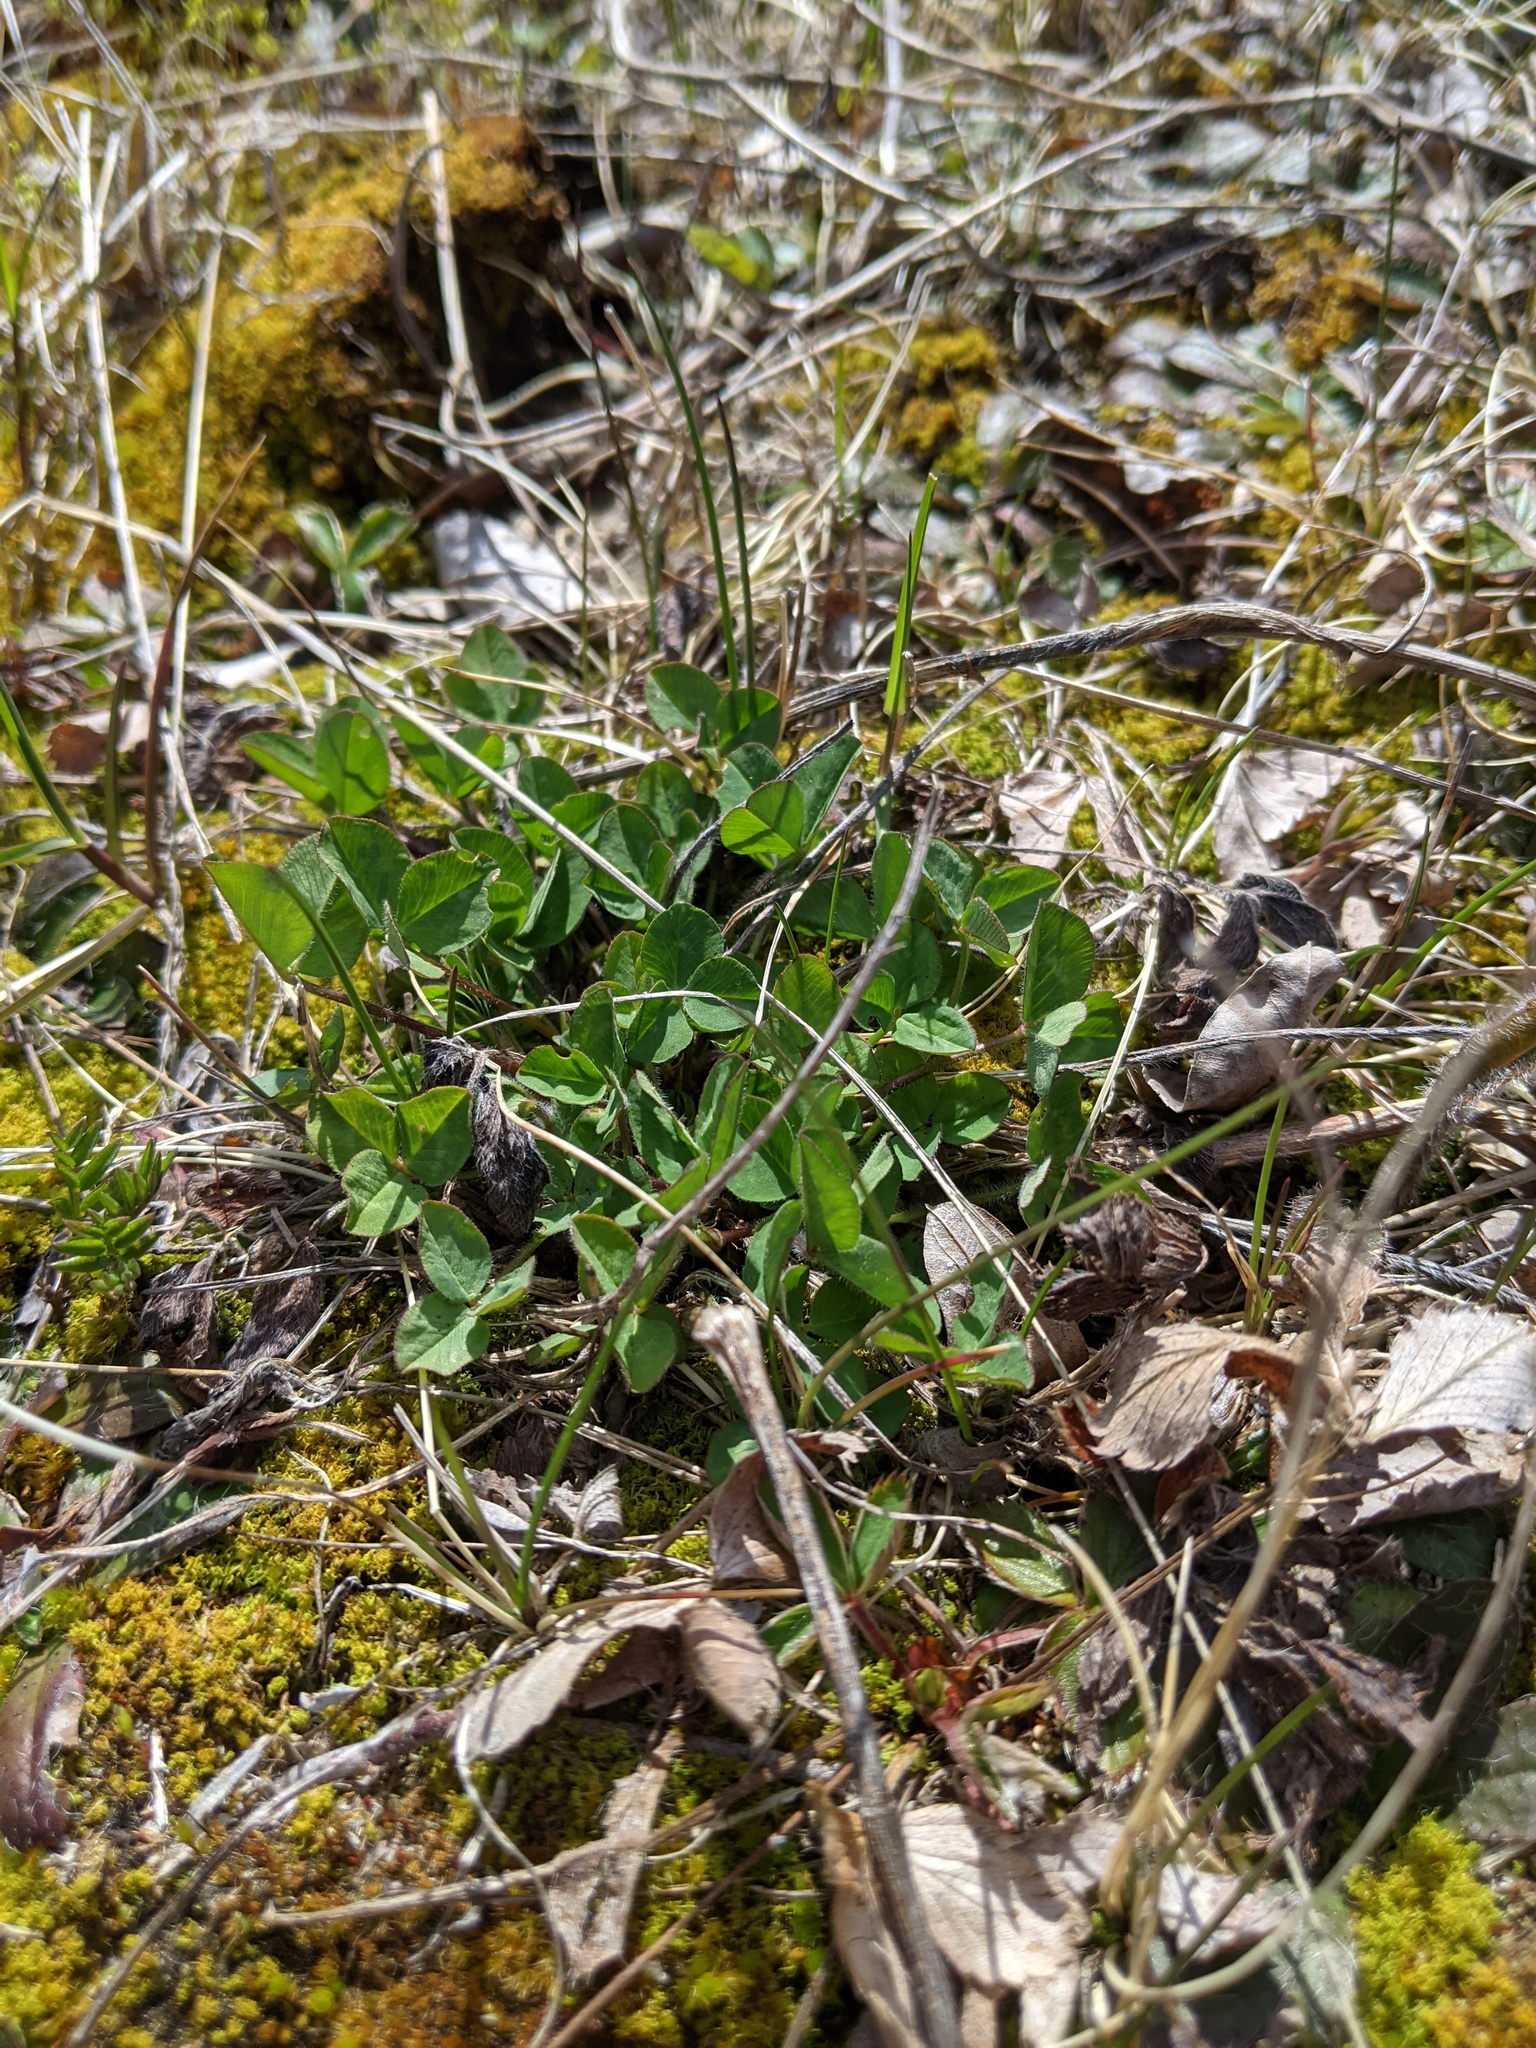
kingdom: Plantae
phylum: Tracheophyta
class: Magnoliopsida
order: Fabales
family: Fabaceae
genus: Trifolium
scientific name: Trifolium pratense
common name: Red clover
